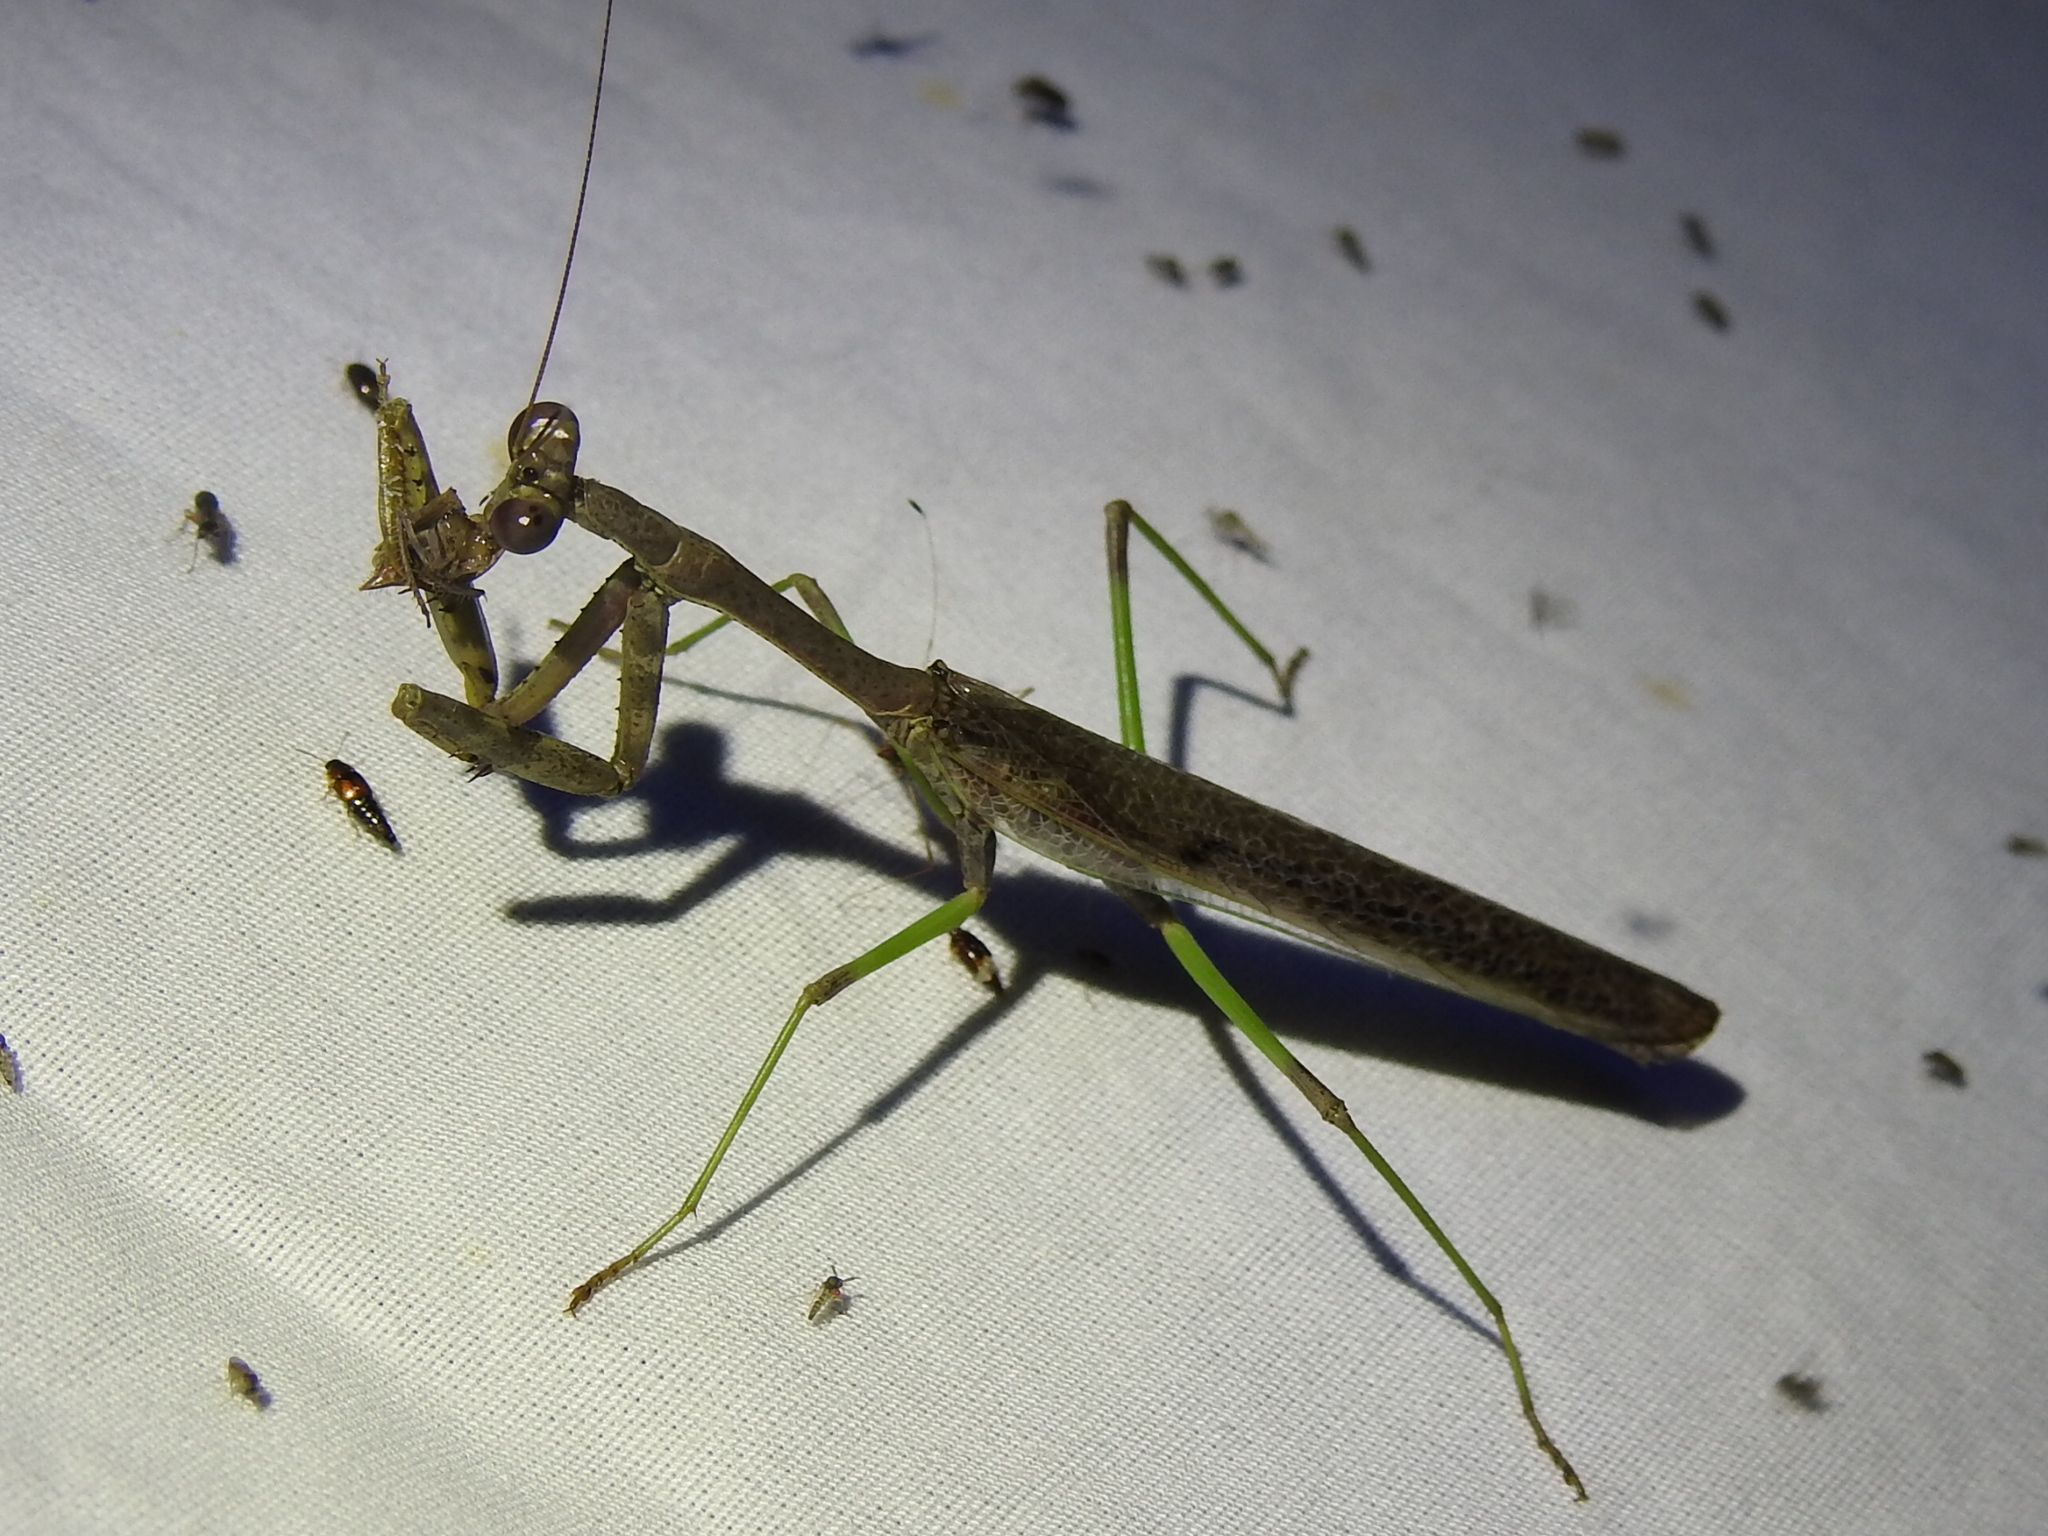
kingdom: Animalia
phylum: Arthropoda
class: Insecta
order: Mantodea
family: Mantidae
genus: Stagmomantis
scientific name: Stagmomantis carolina
